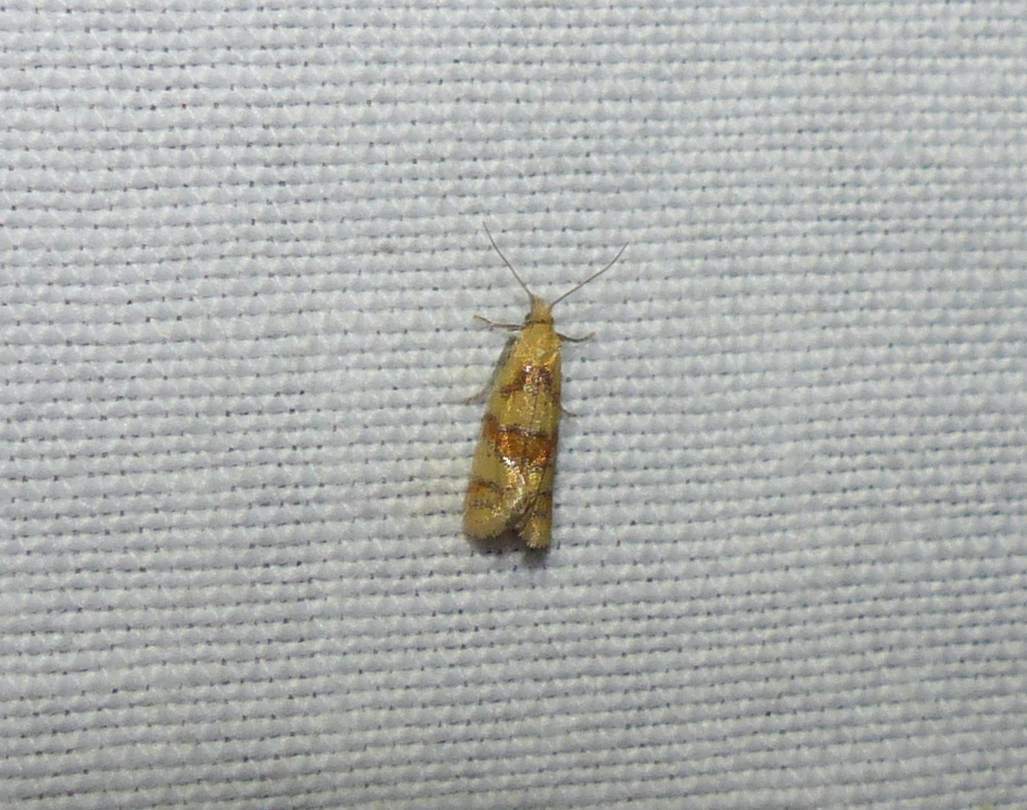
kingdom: Animalia
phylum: Arthropoda
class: Insecta
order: Lepidoptera
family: Tortricidae
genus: Phtheochroa
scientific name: Phtheochroa vitellinana
